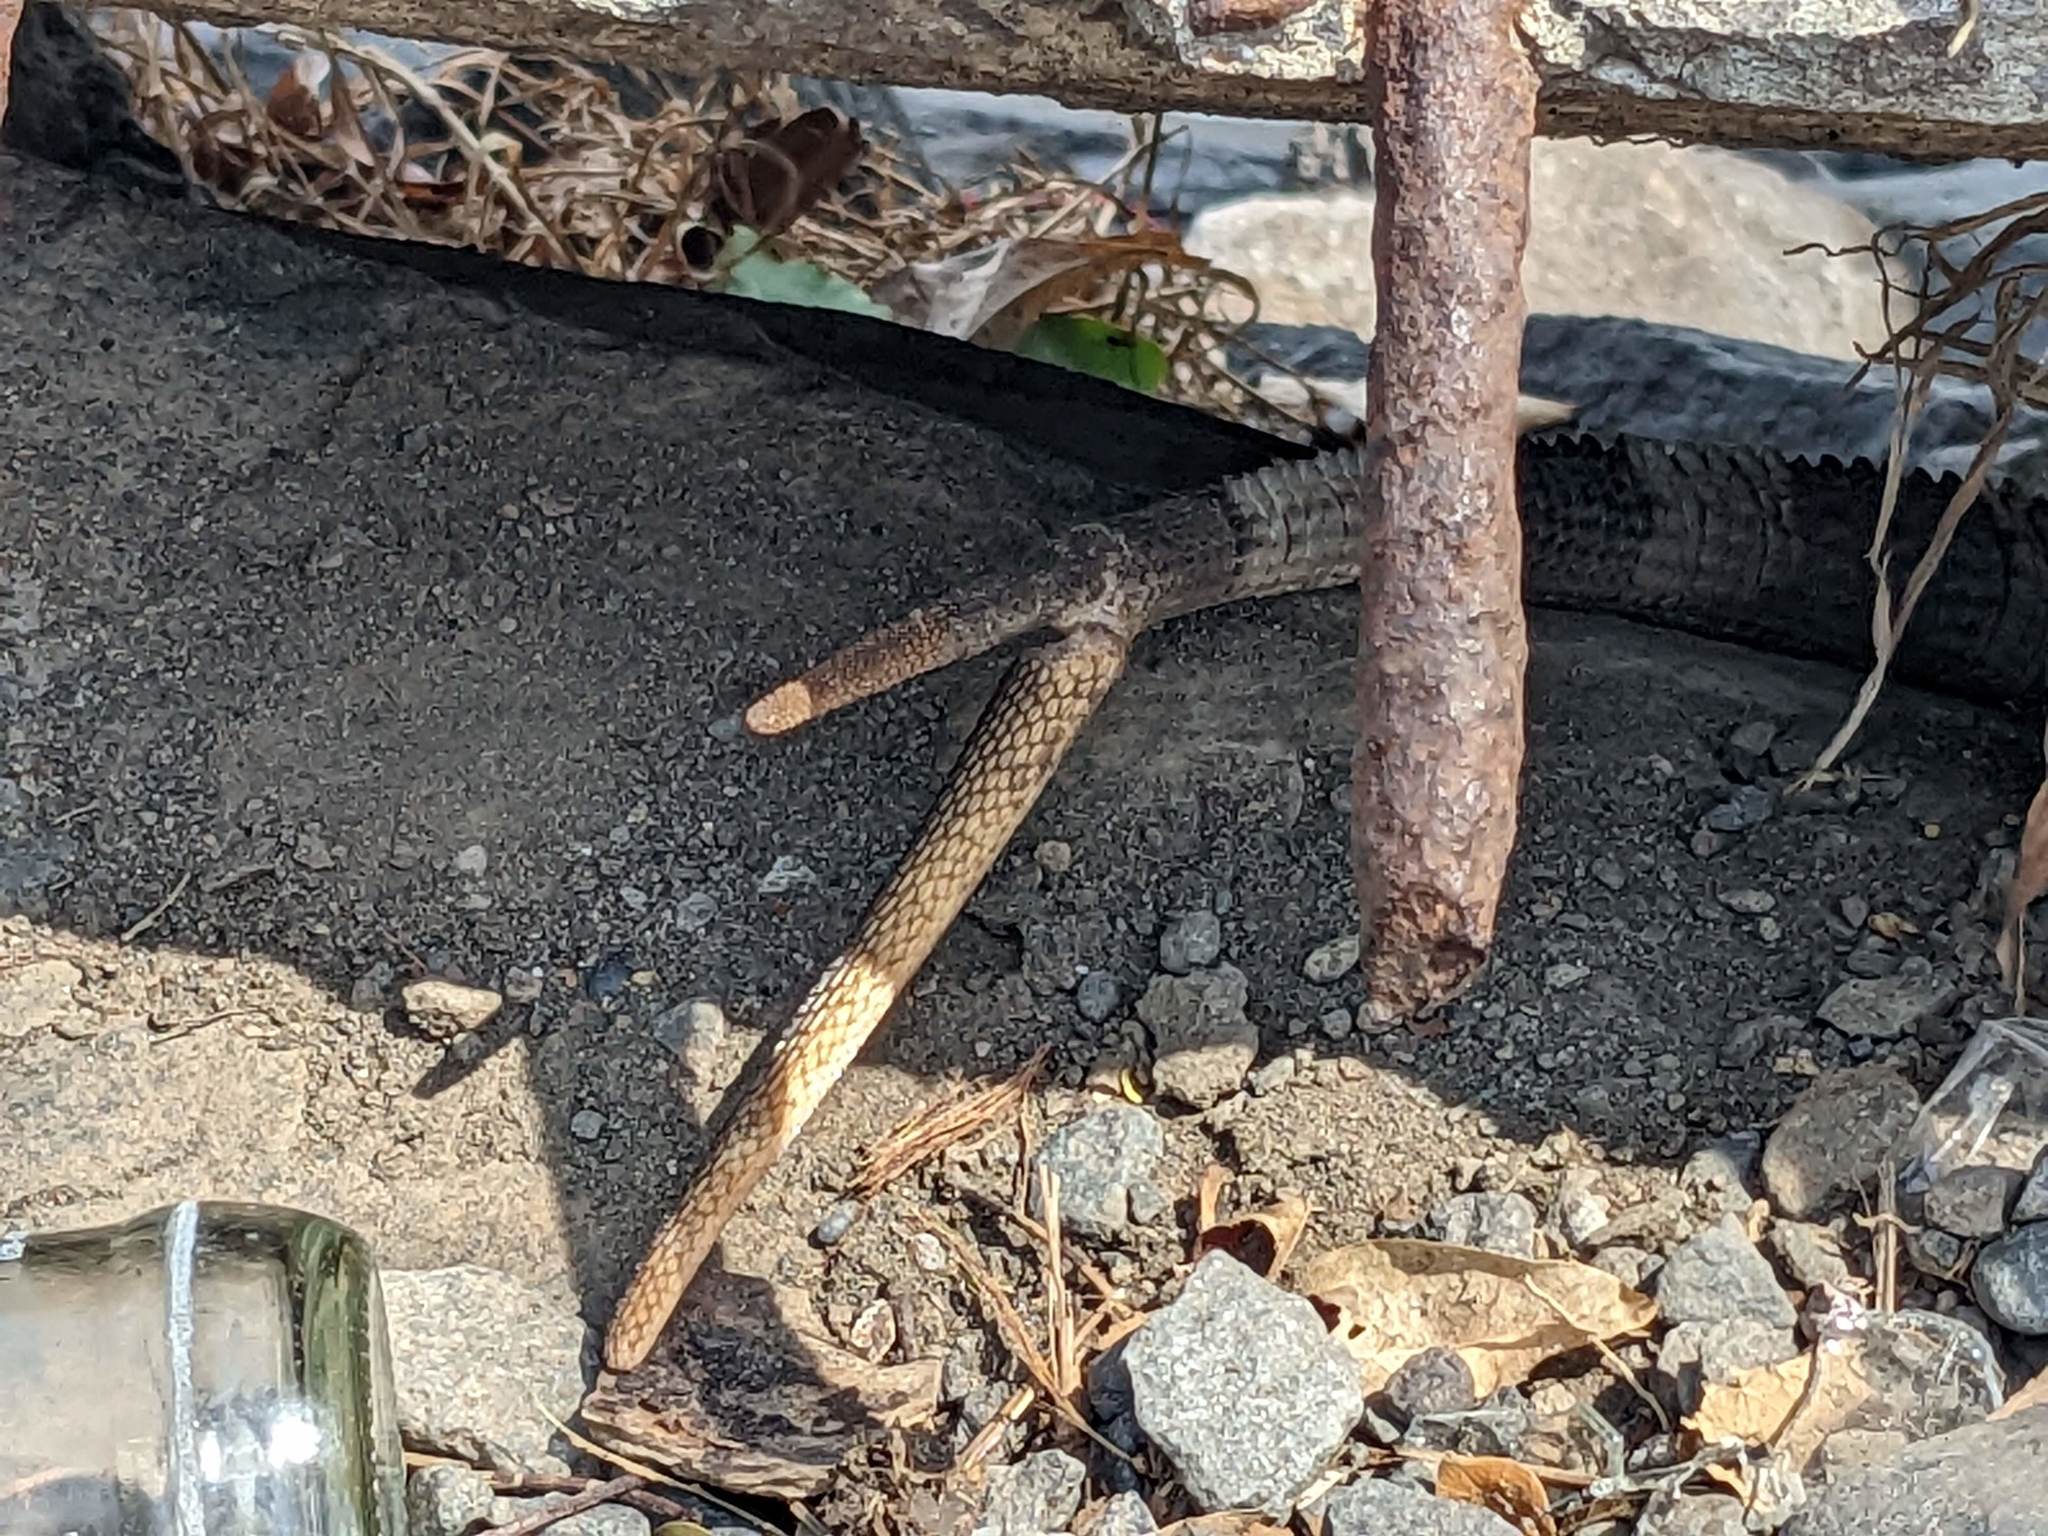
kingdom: Animalia
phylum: Chordata
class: Squamata
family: Iguanidae
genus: Ctenosaura
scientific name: Ctenosaura similis
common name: Black spiny-tailed iguana
